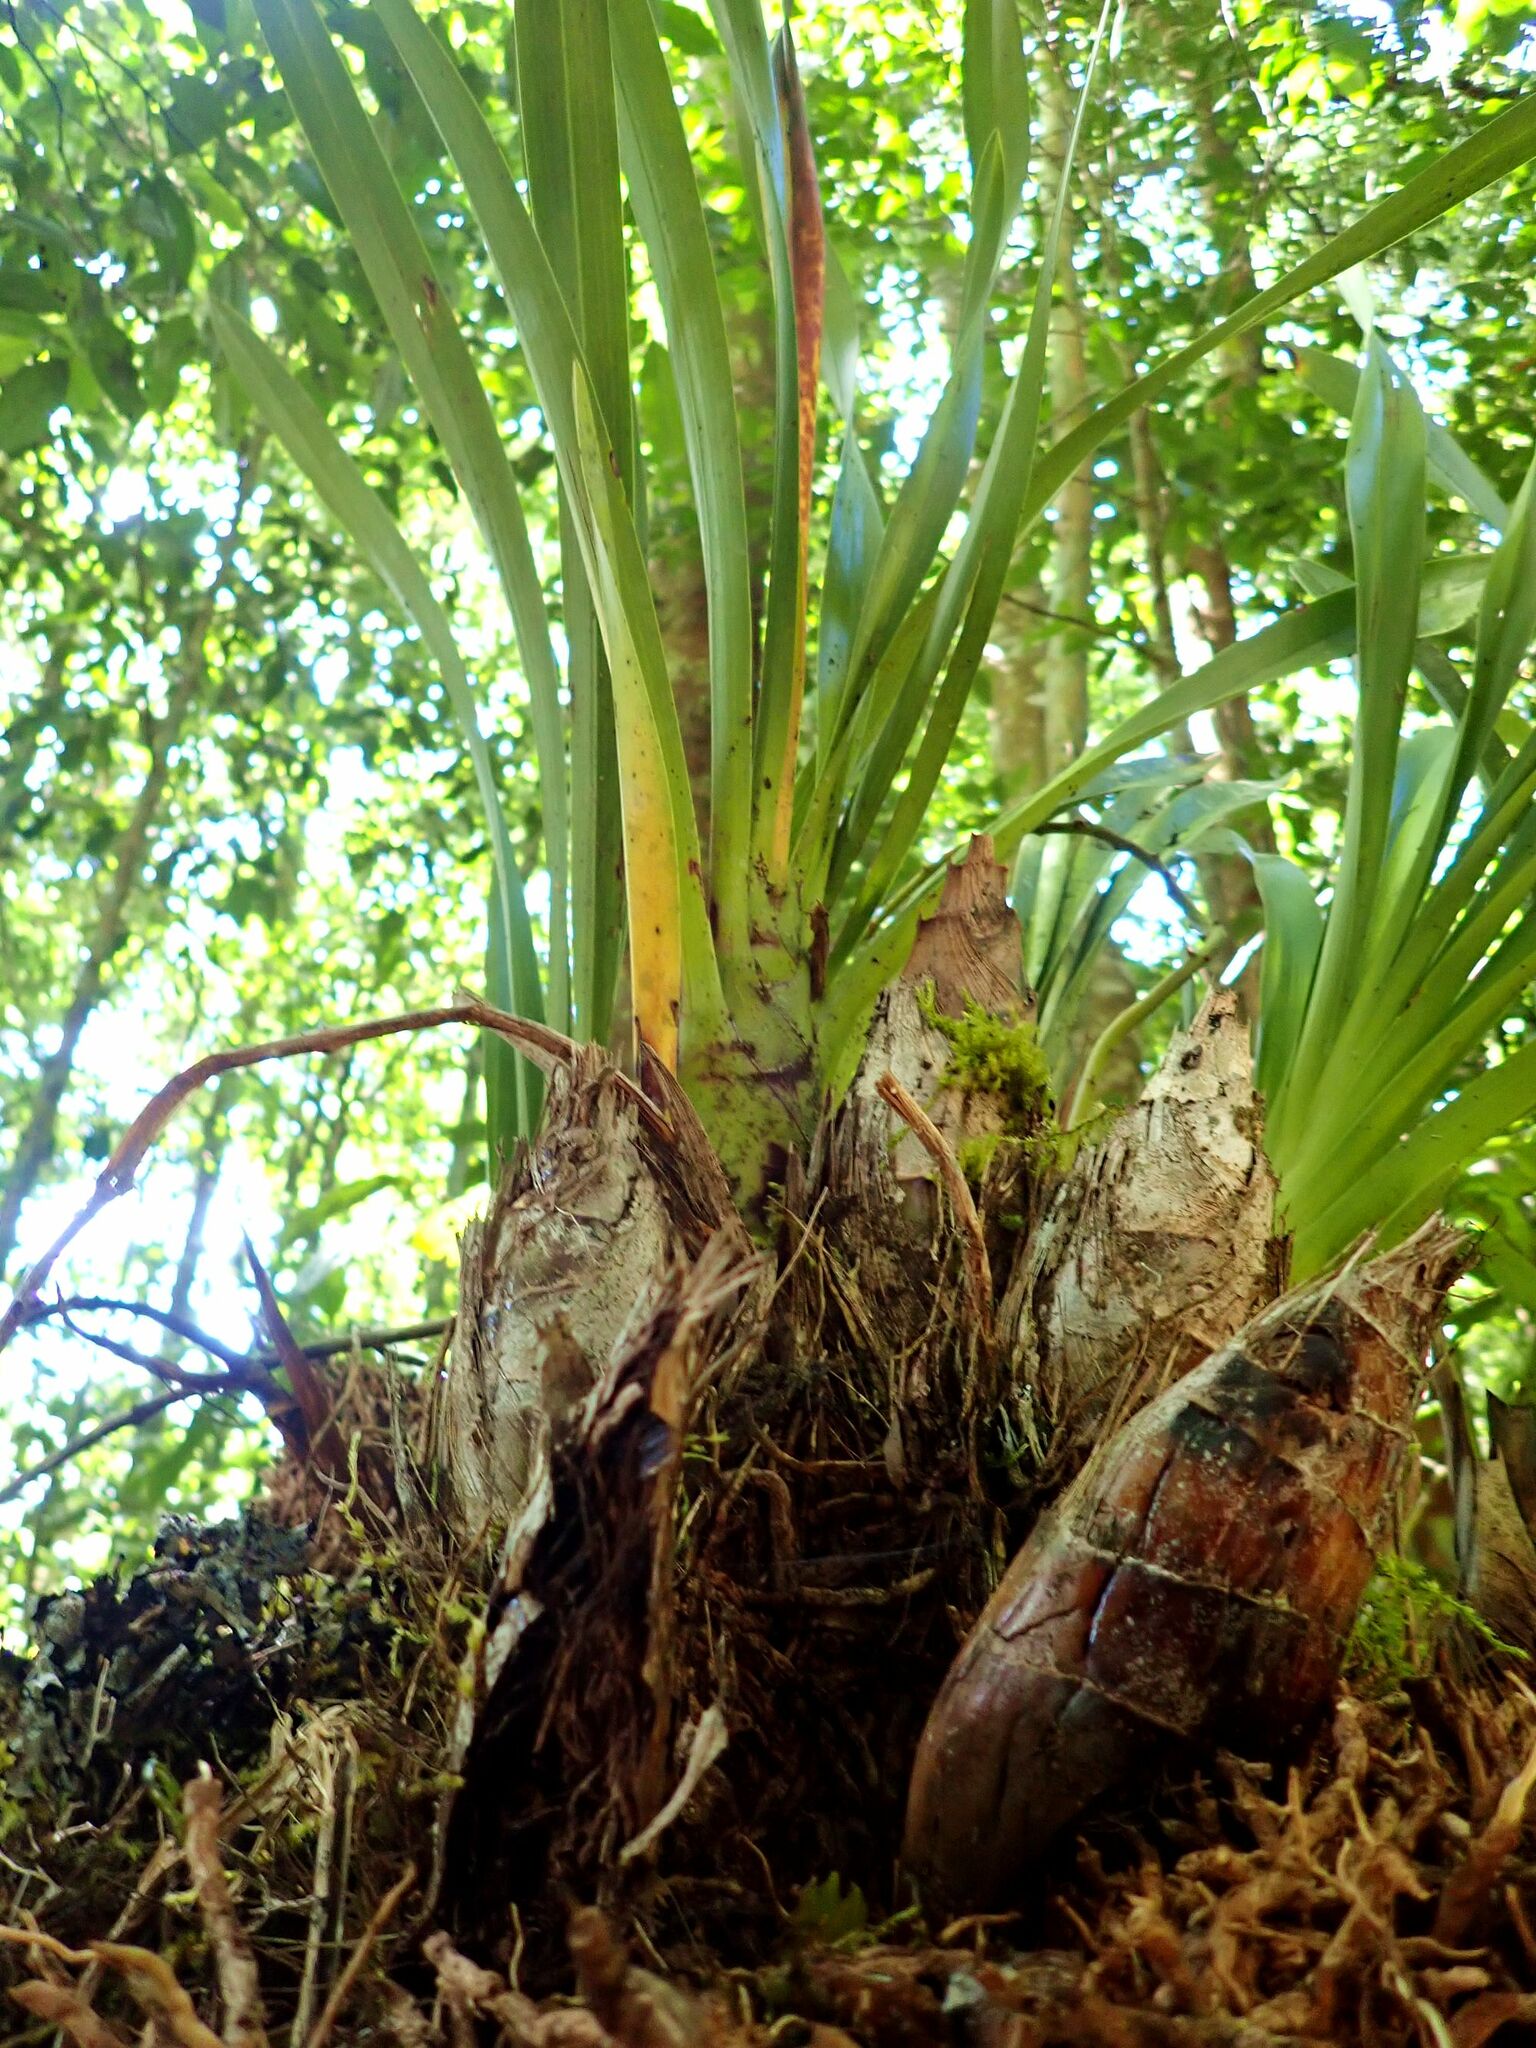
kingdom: Plantae
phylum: Tracheophyta
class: Liliopsida
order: Asparagales
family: Orchidaceae
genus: Cymbidium
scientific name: Cymbidium madidum
